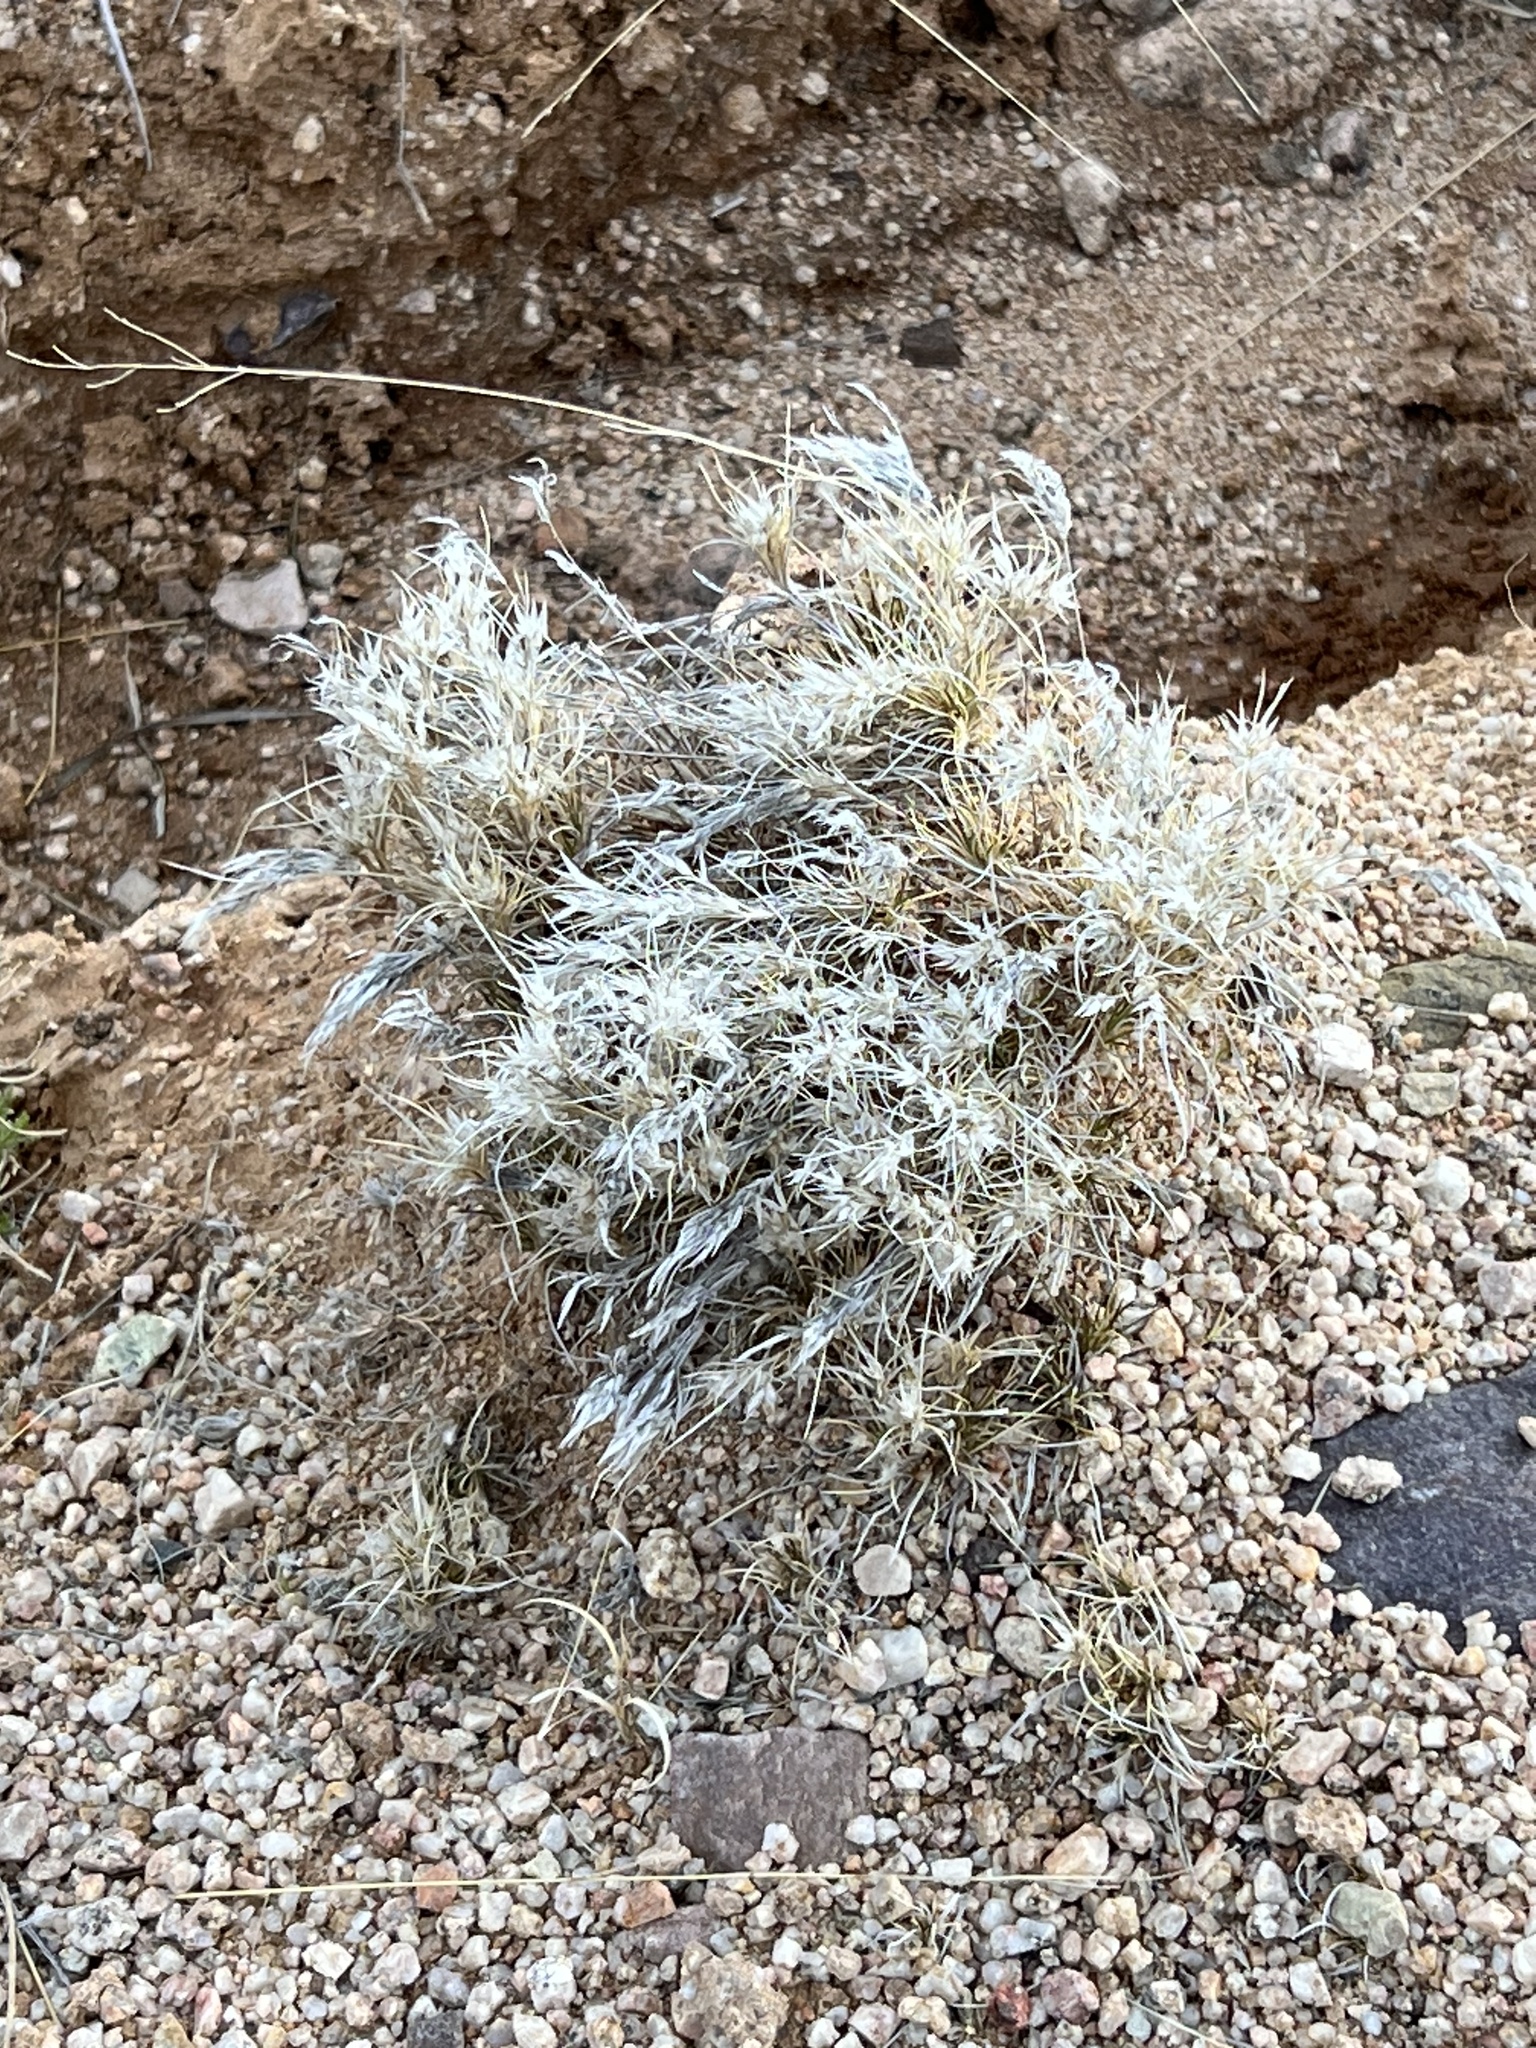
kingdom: Plantae
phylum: Tracheophyta
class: Liliopsida
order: Poales
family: Poaceae
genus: Dasyochloa
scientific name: Dasyochloa pulchella
